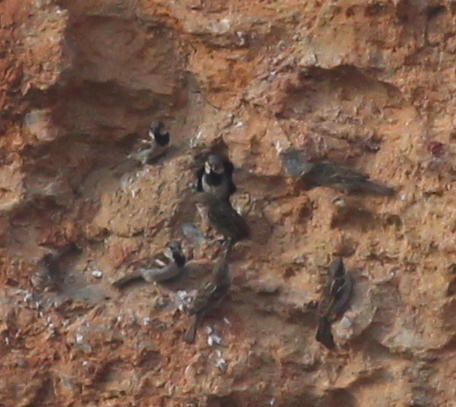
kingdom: Animalia
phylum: Chordata
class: Aves
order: Passeriformes
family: Passeridae
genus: Passer
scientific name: Passer domesticus
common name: House sparrow
